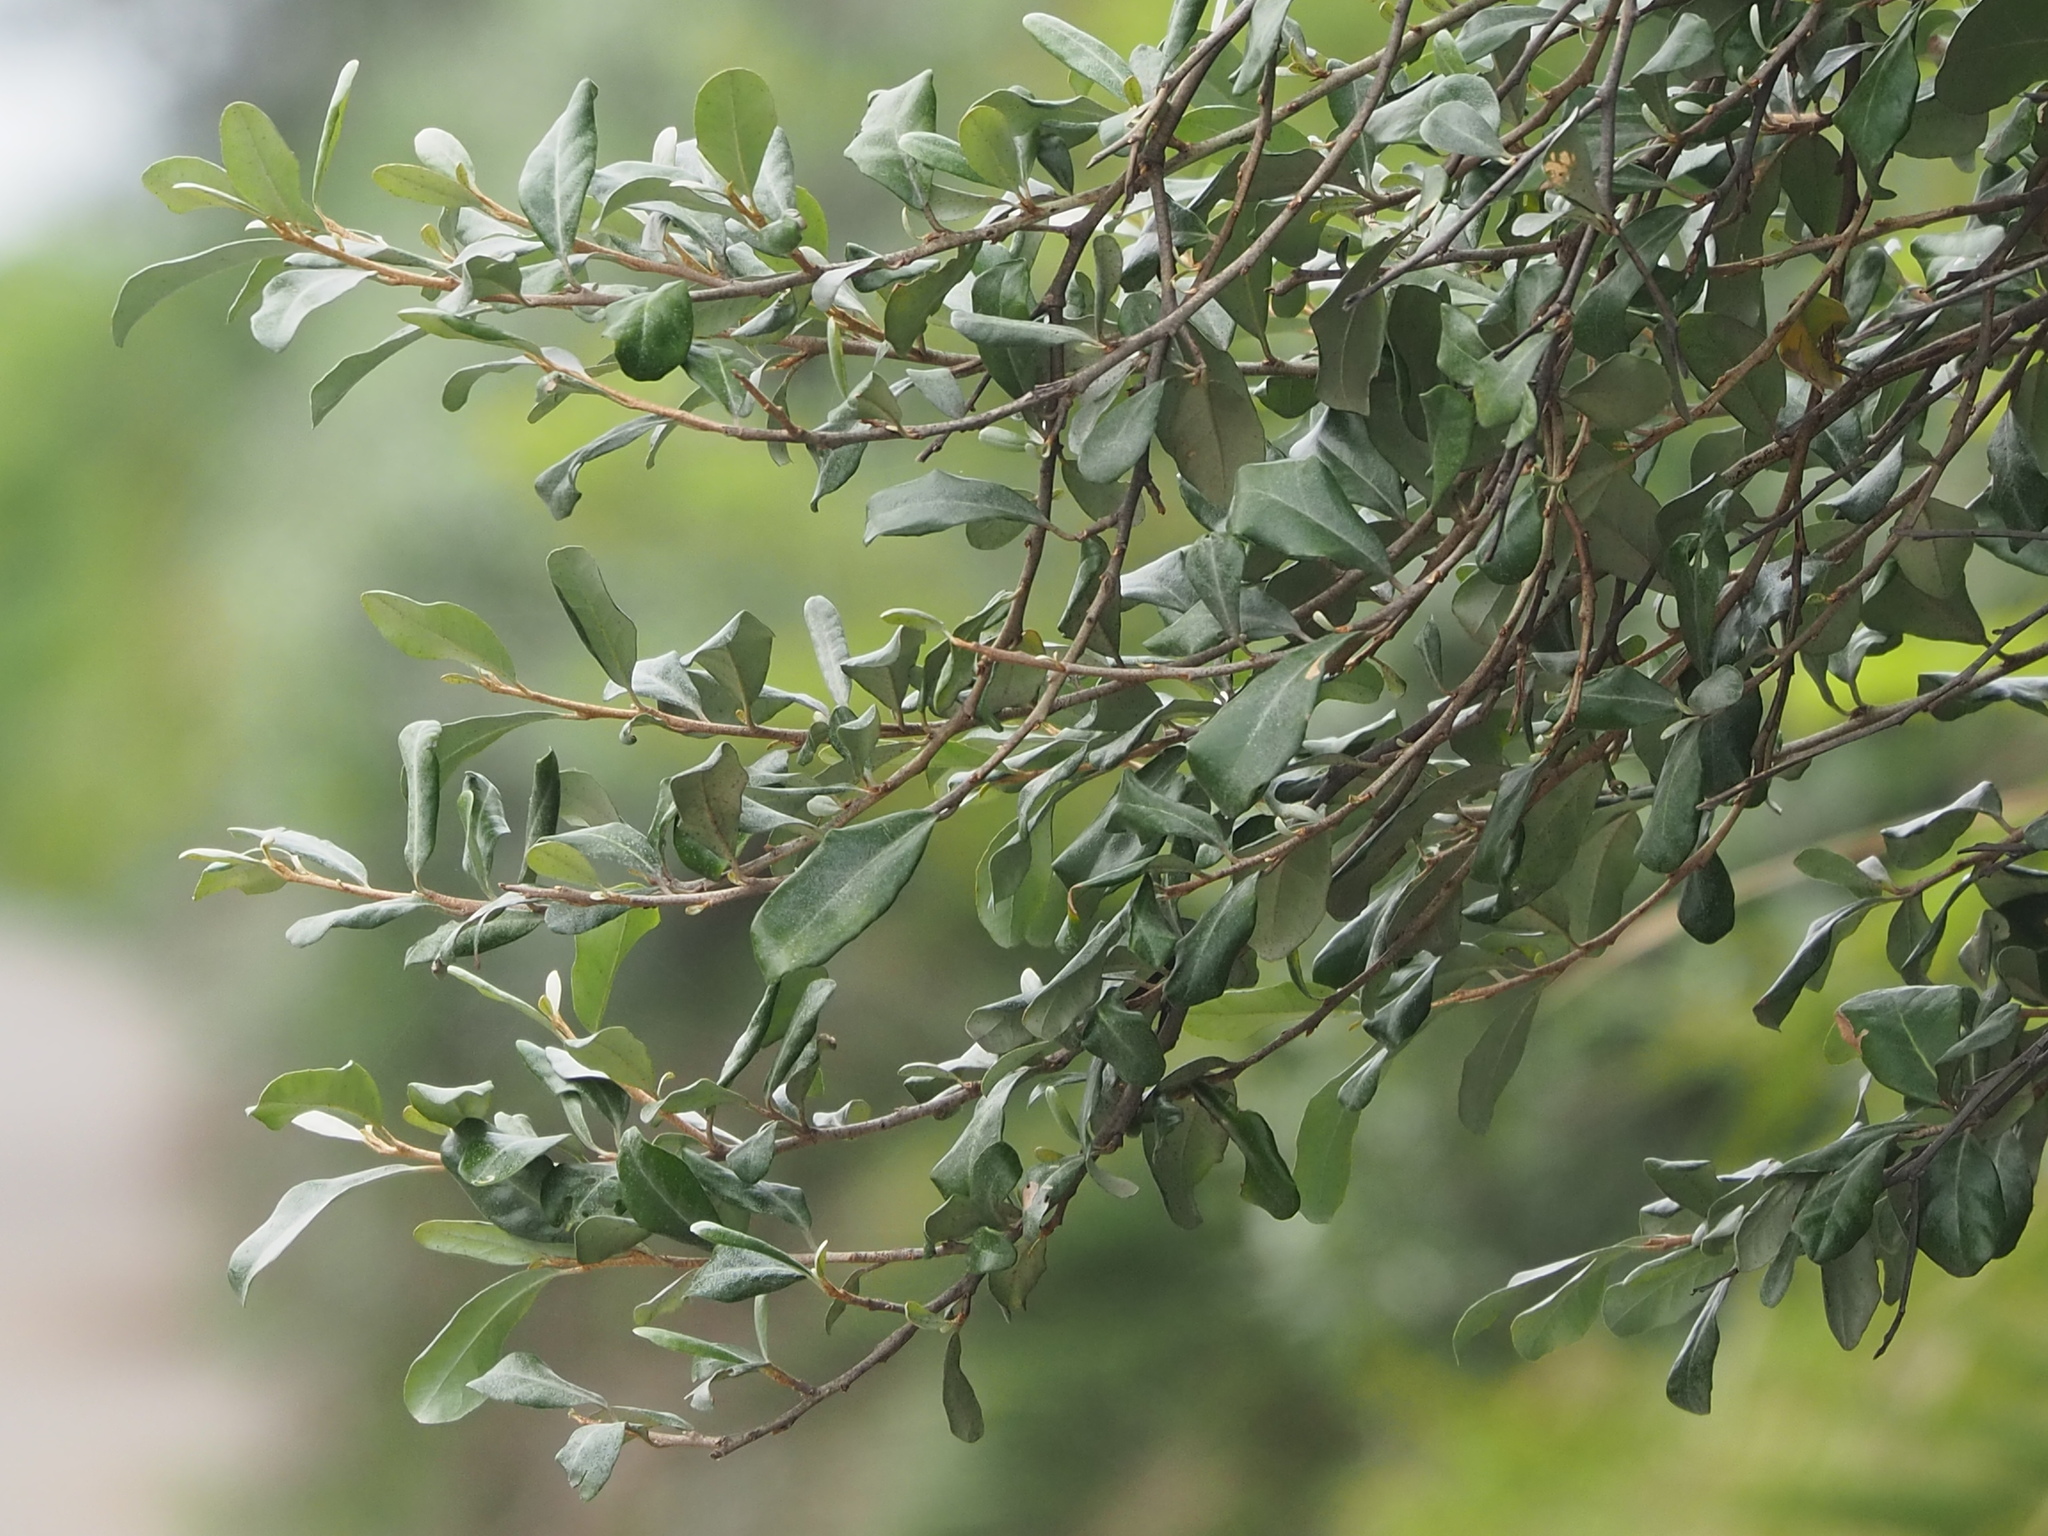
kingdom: Plantae
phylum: Tracheophyta
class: Magnoliopsida
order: Rosales
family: Elaeagnaceae
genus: Elaeagnus
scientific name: Elaeagnus oldhamii
